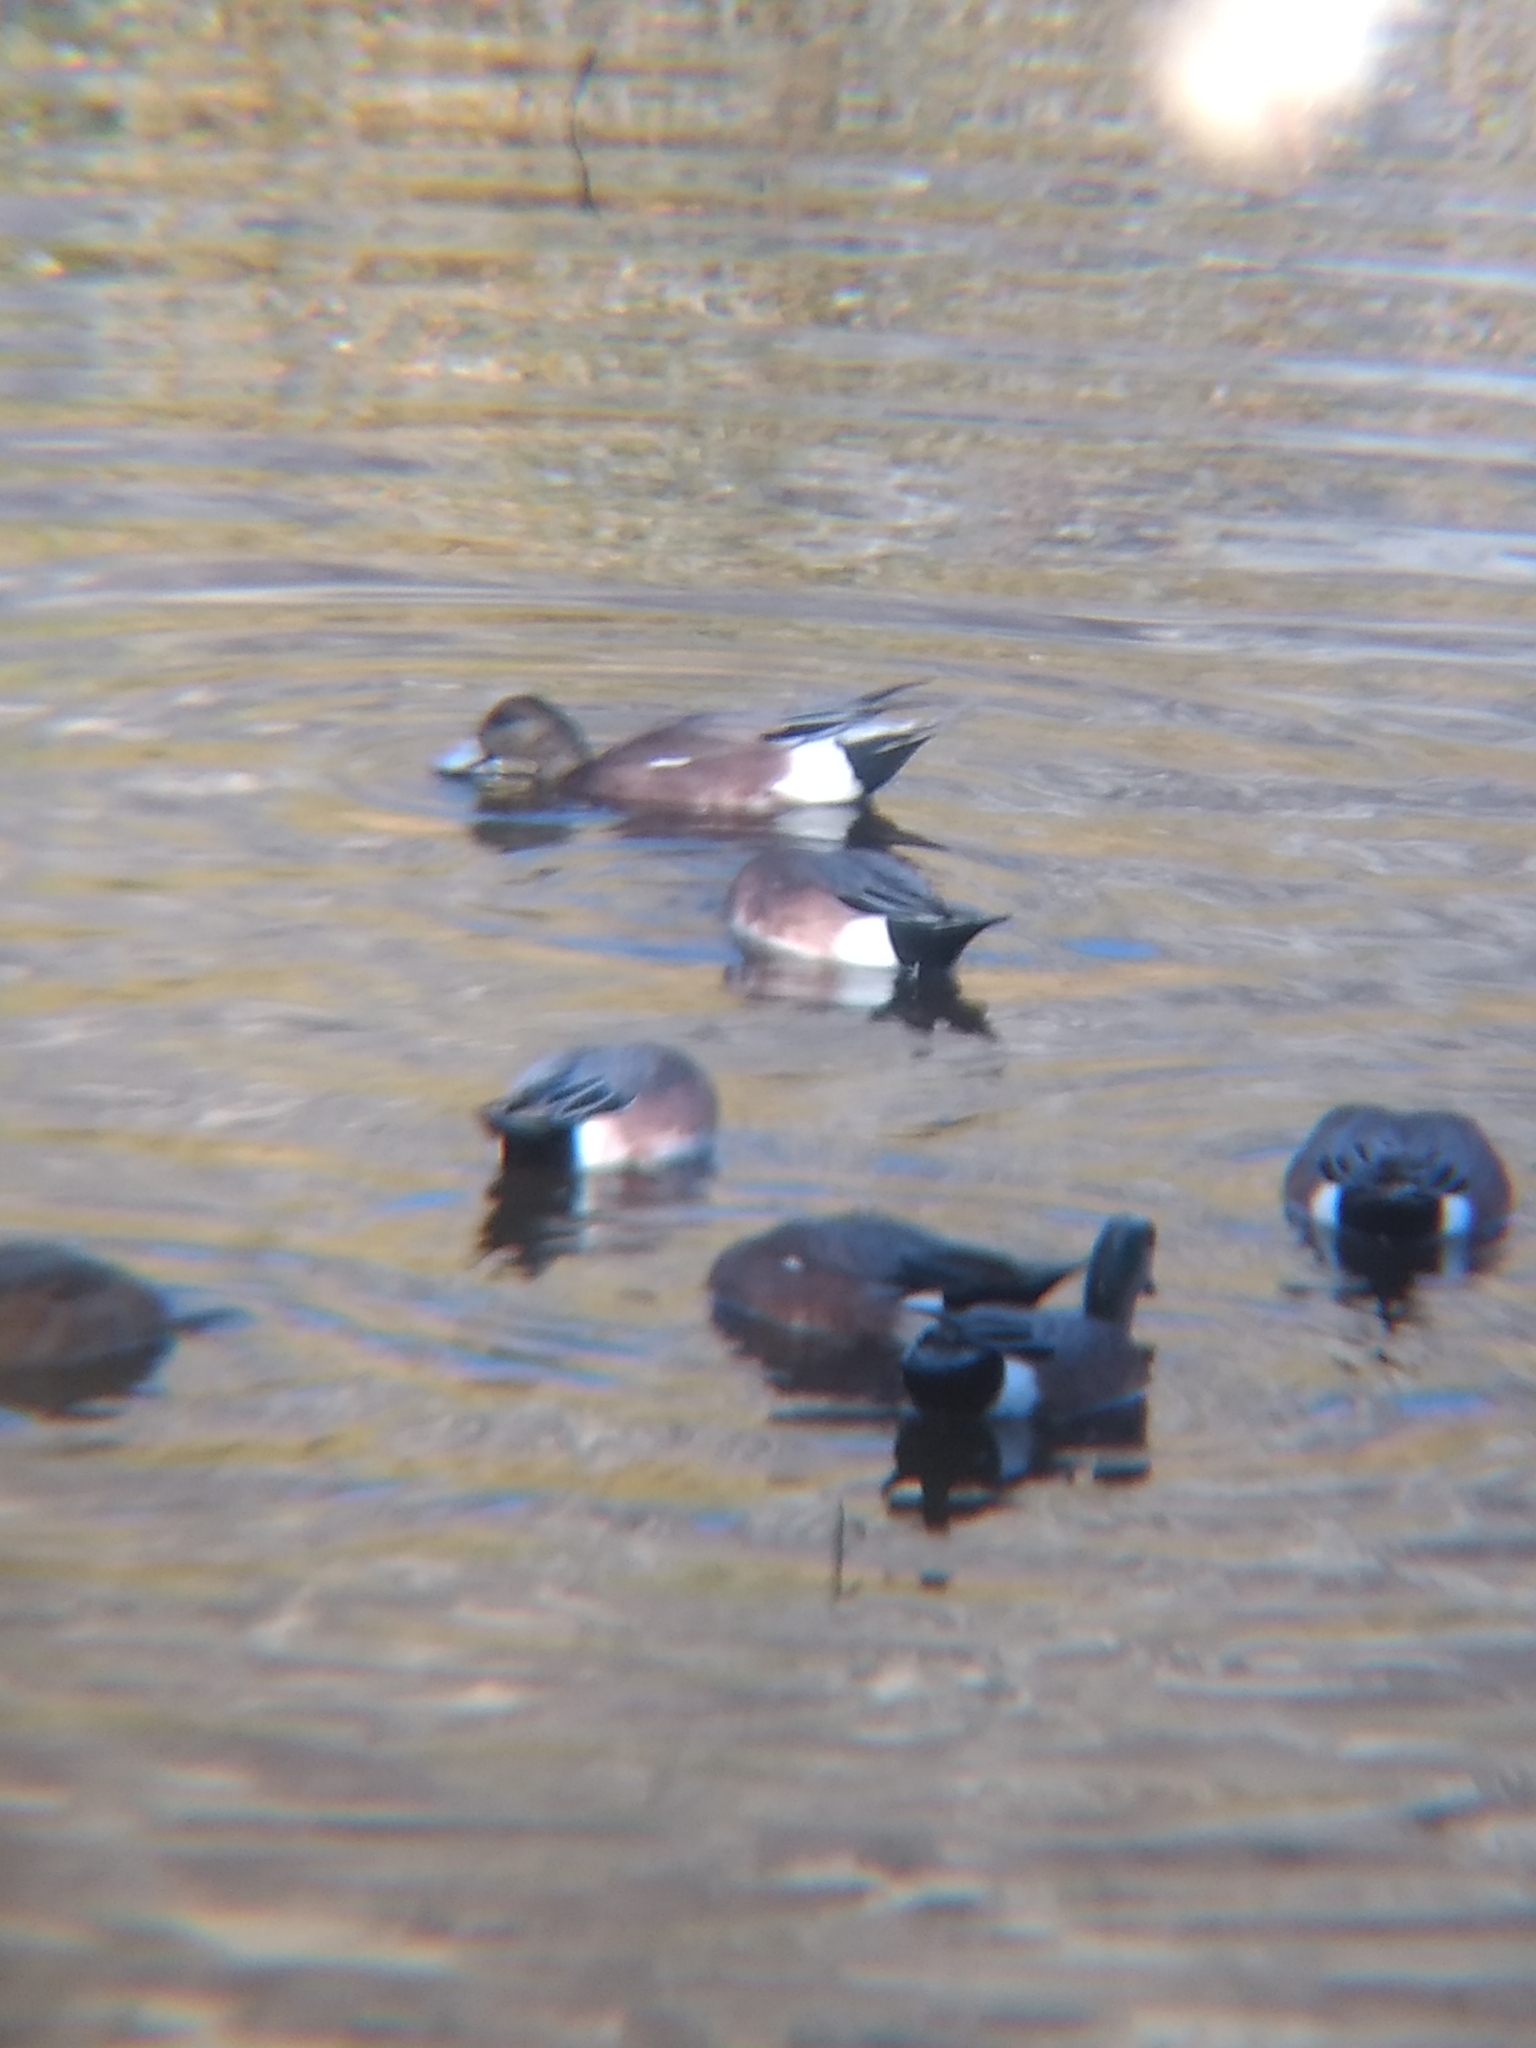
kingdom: Animalia
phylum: Chordata
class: Aves
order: Anseriformes
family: Anatidae
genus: Mareca
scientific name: Mareca americana
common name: American wigeon
